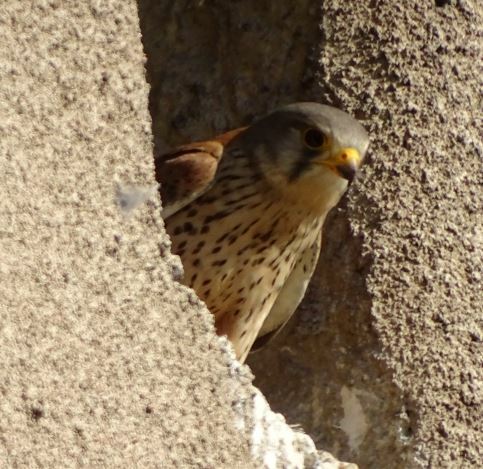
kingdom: Animalia
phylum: Chordata
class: Aves
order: Falconiformes
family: Falconidae
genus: Falco
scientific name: Falco tinnunculus
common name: Common kestrel
